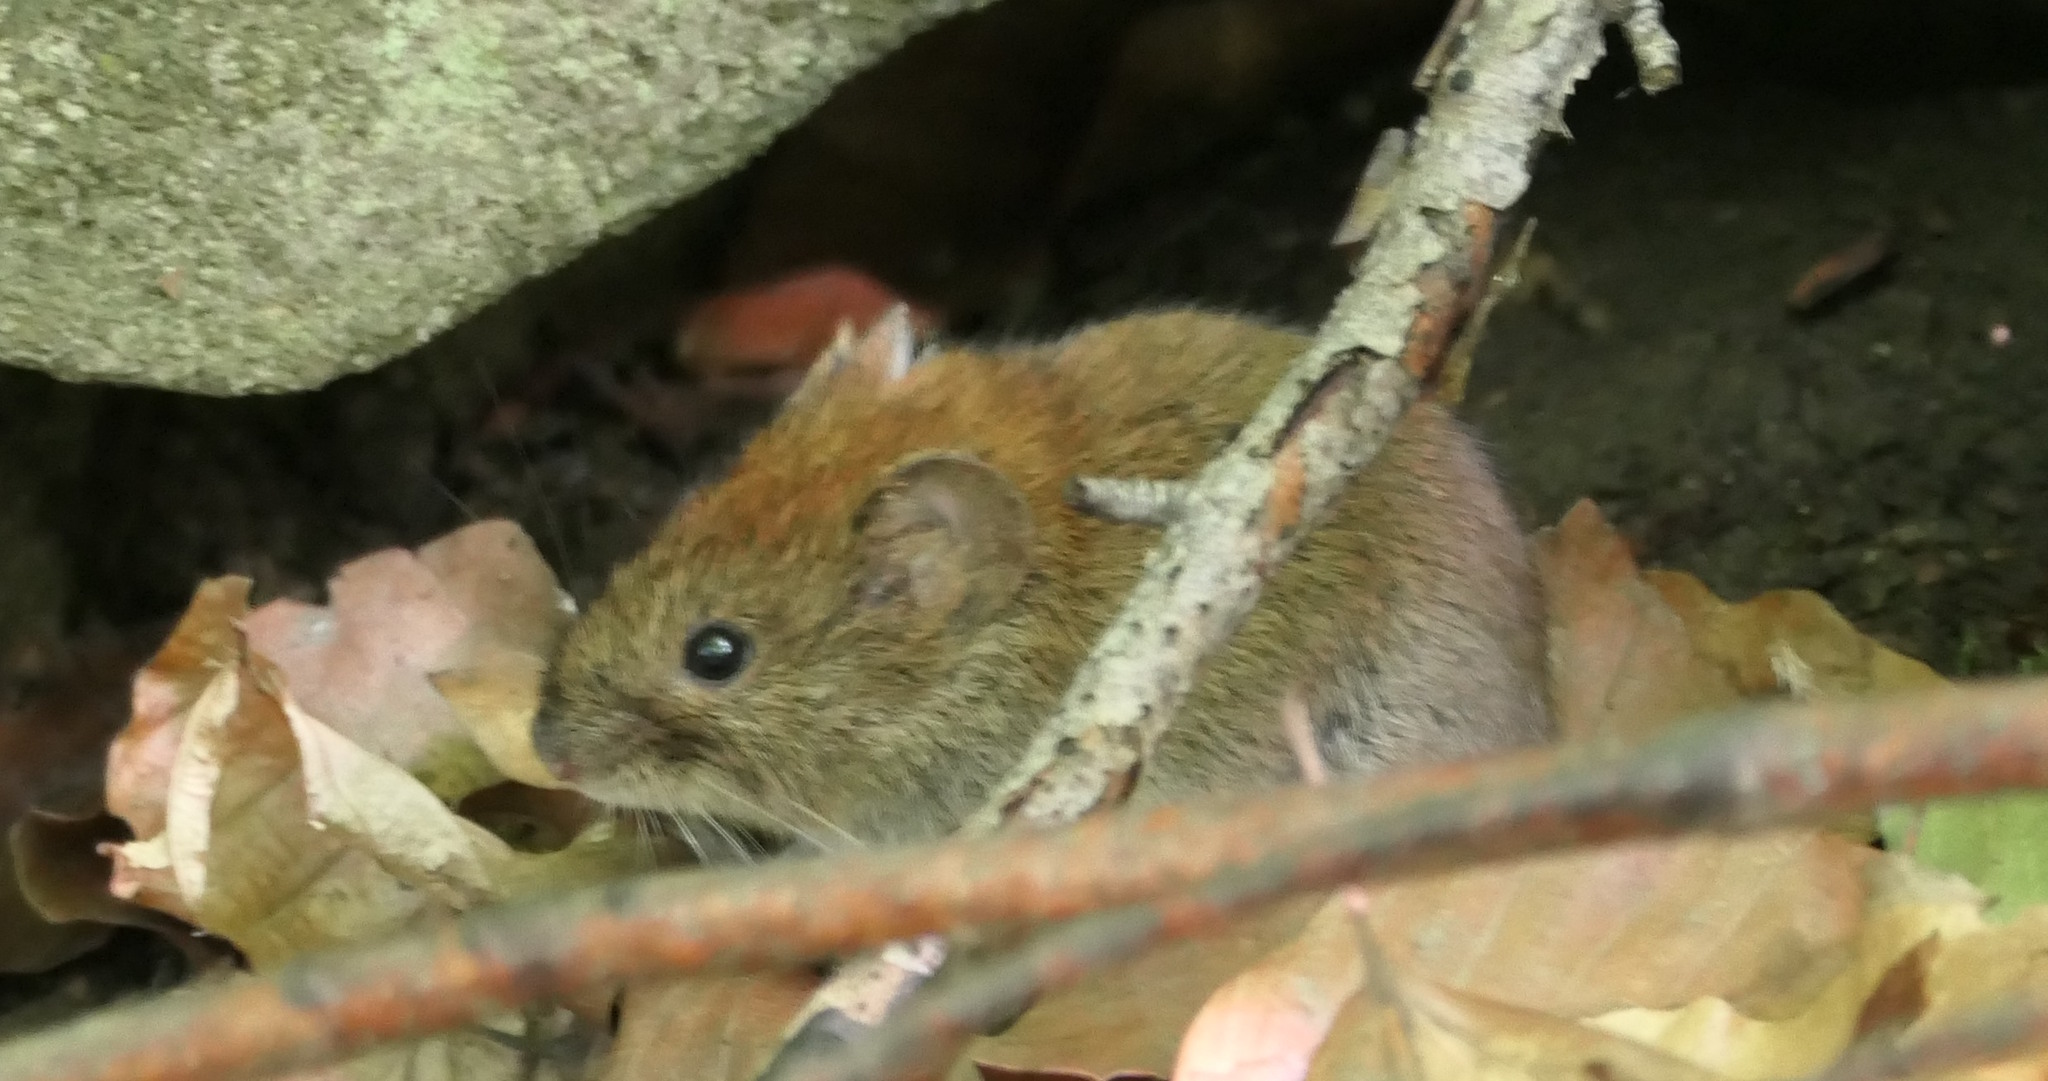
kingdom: Animalia
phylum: Chordata
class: Mammalia
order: Rodentia
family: Cricetidae
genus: Myodes
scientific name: Myodes glareolus
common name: Bank vole
